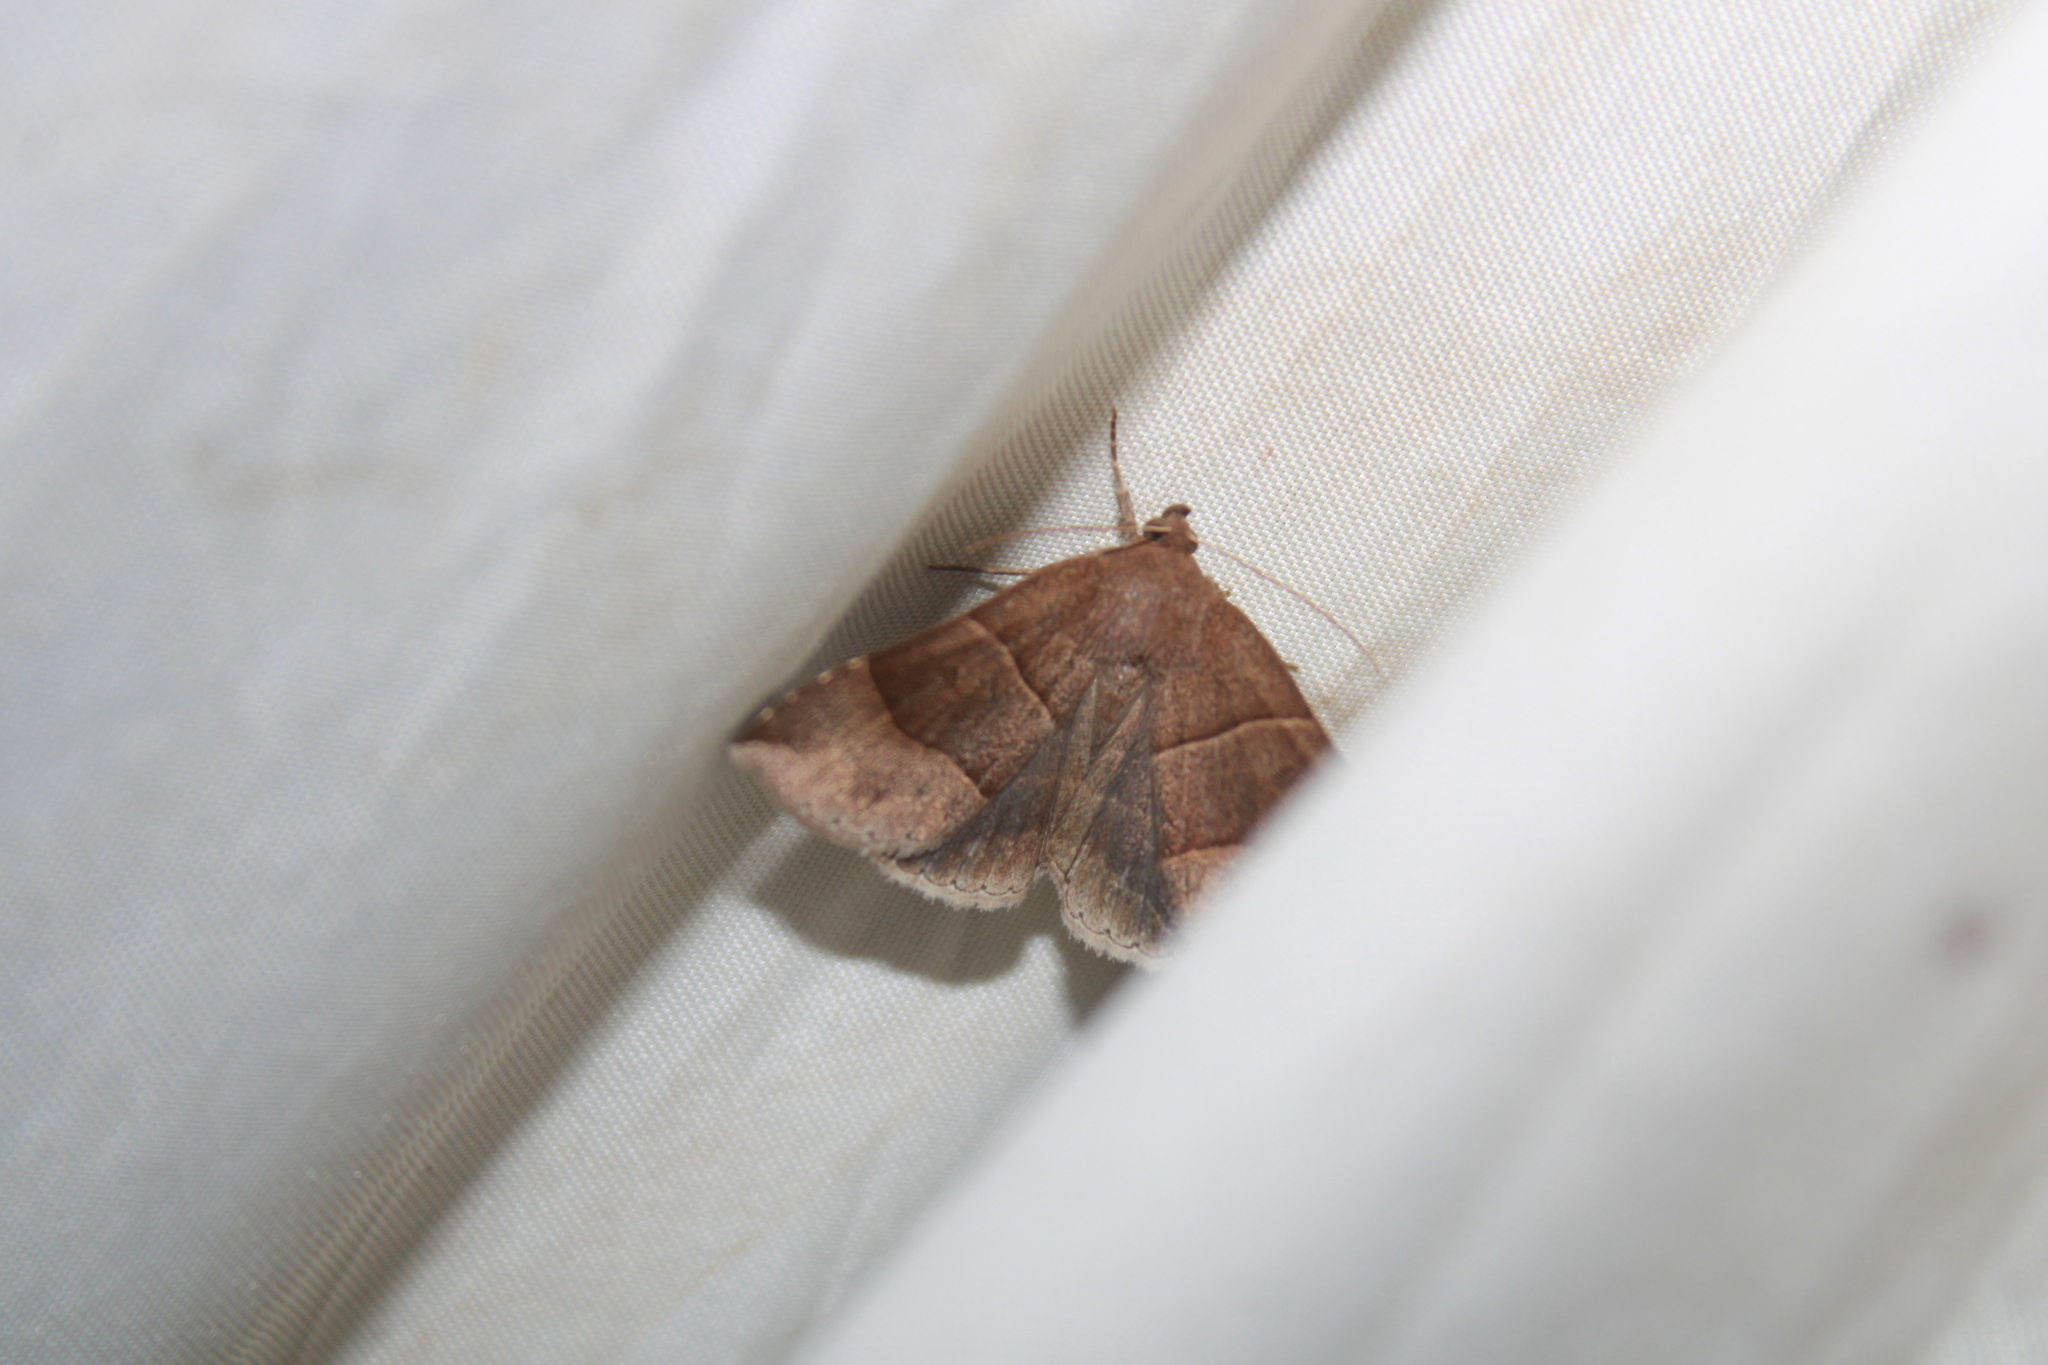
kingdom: Animalia
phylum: Arthropoda
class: Insecta
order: Lepidoptera
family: Erebidae
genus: Parallelia
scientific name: Parallelia bistriaris
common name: Maple looper moth
